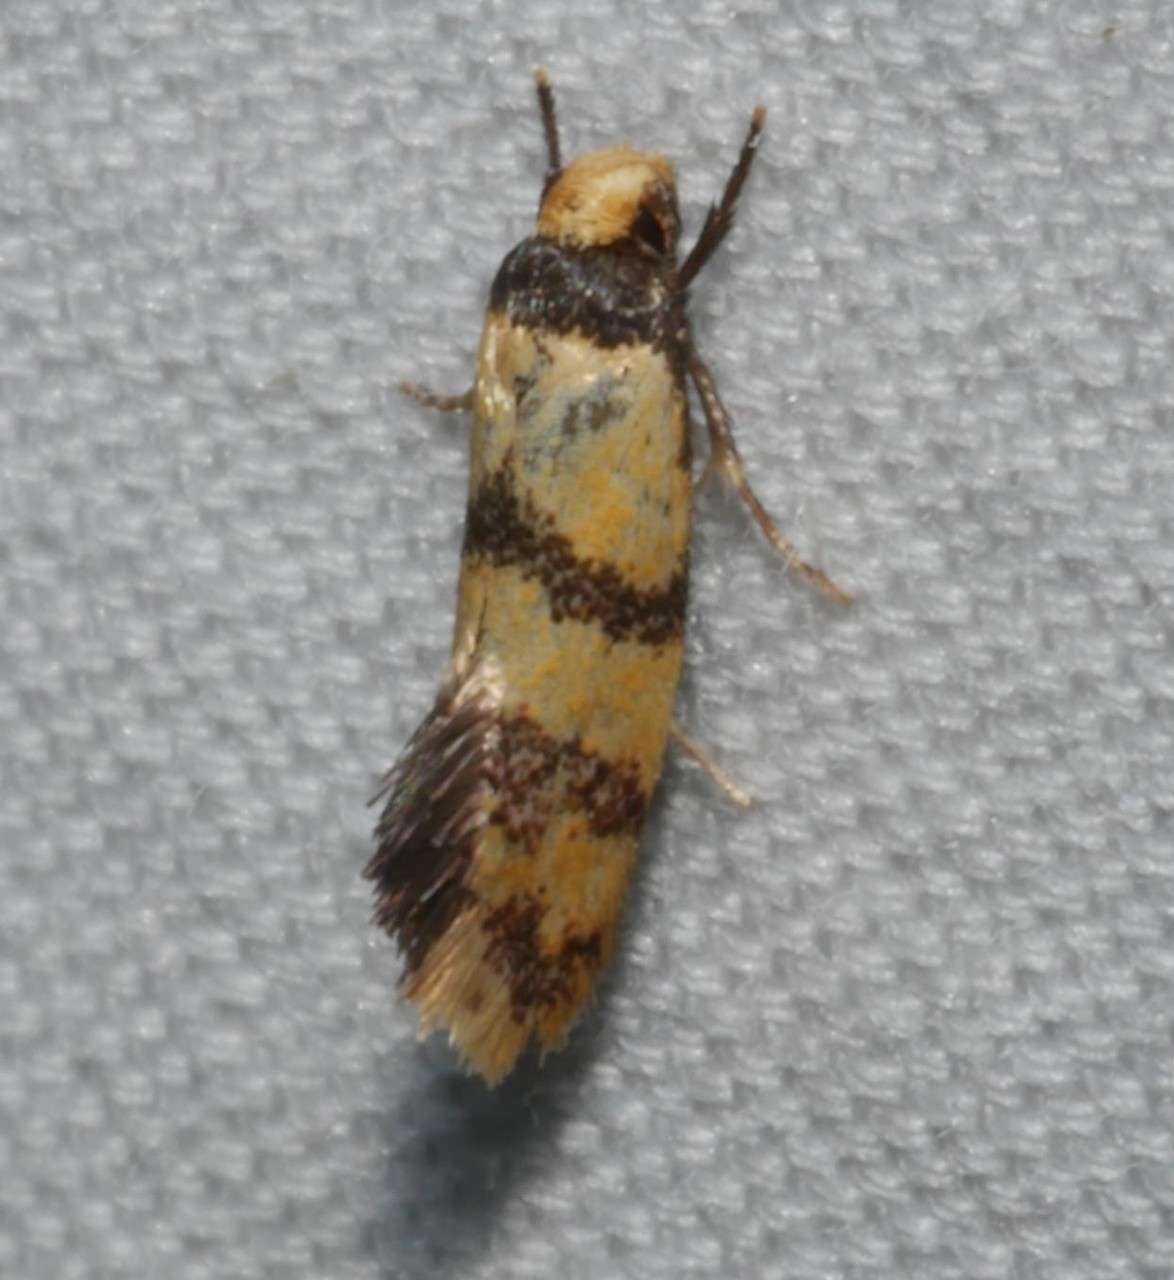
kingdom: Animalia
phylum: Arthropoda
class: Insecta
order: Lepidoptera
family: Oecophoridae
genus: Psaroxantha
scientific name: Psaroxantha calligenes
